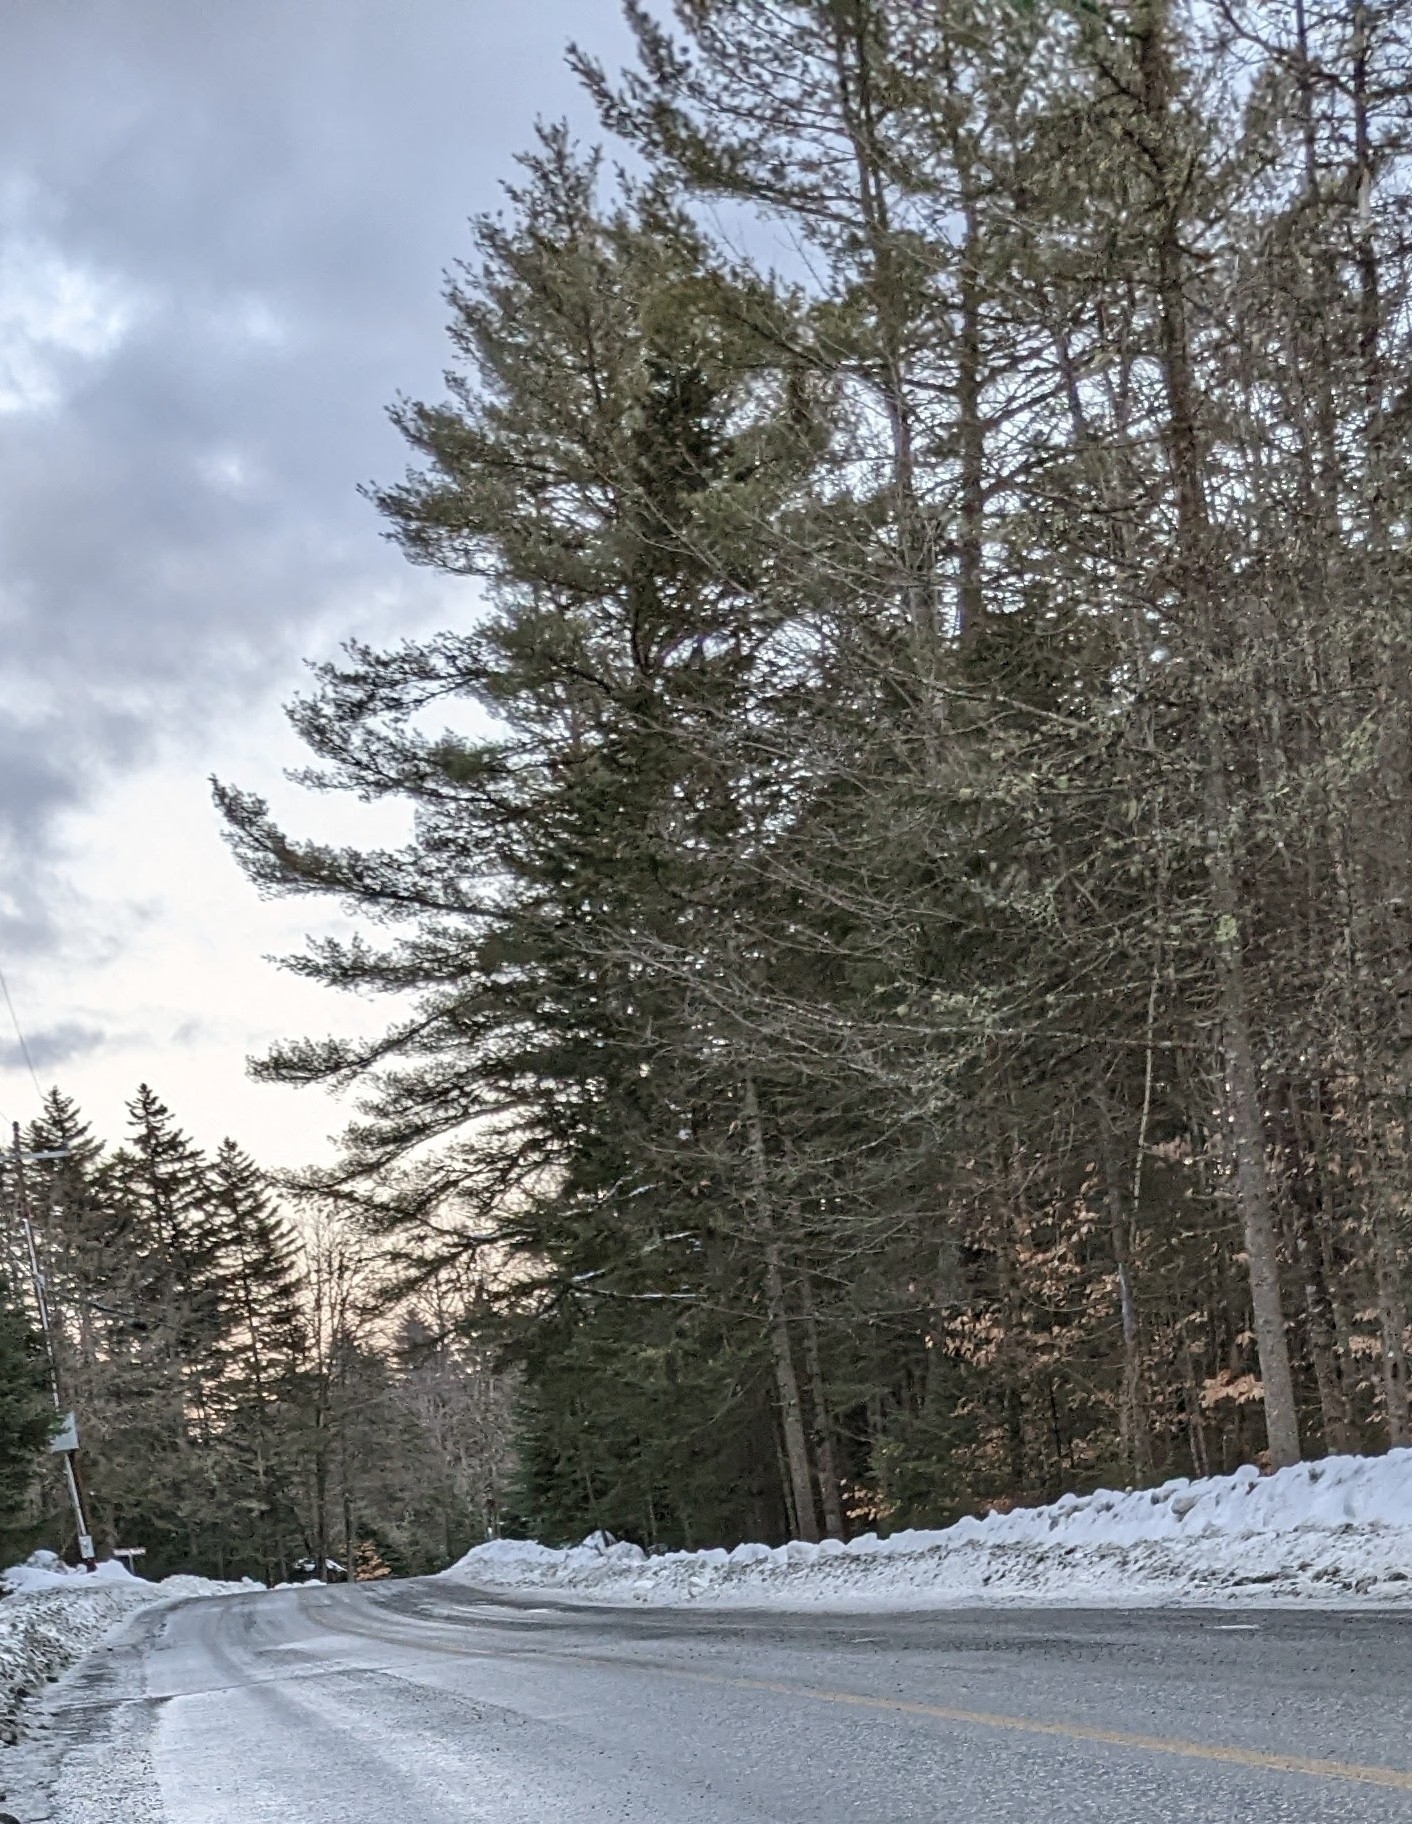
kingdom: Plantae
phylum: Tracheophyta
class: Pinopsida
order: Pinales
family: Pinaceae
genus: Pinus
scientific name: Pinus strobus
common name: Weymouth pine
